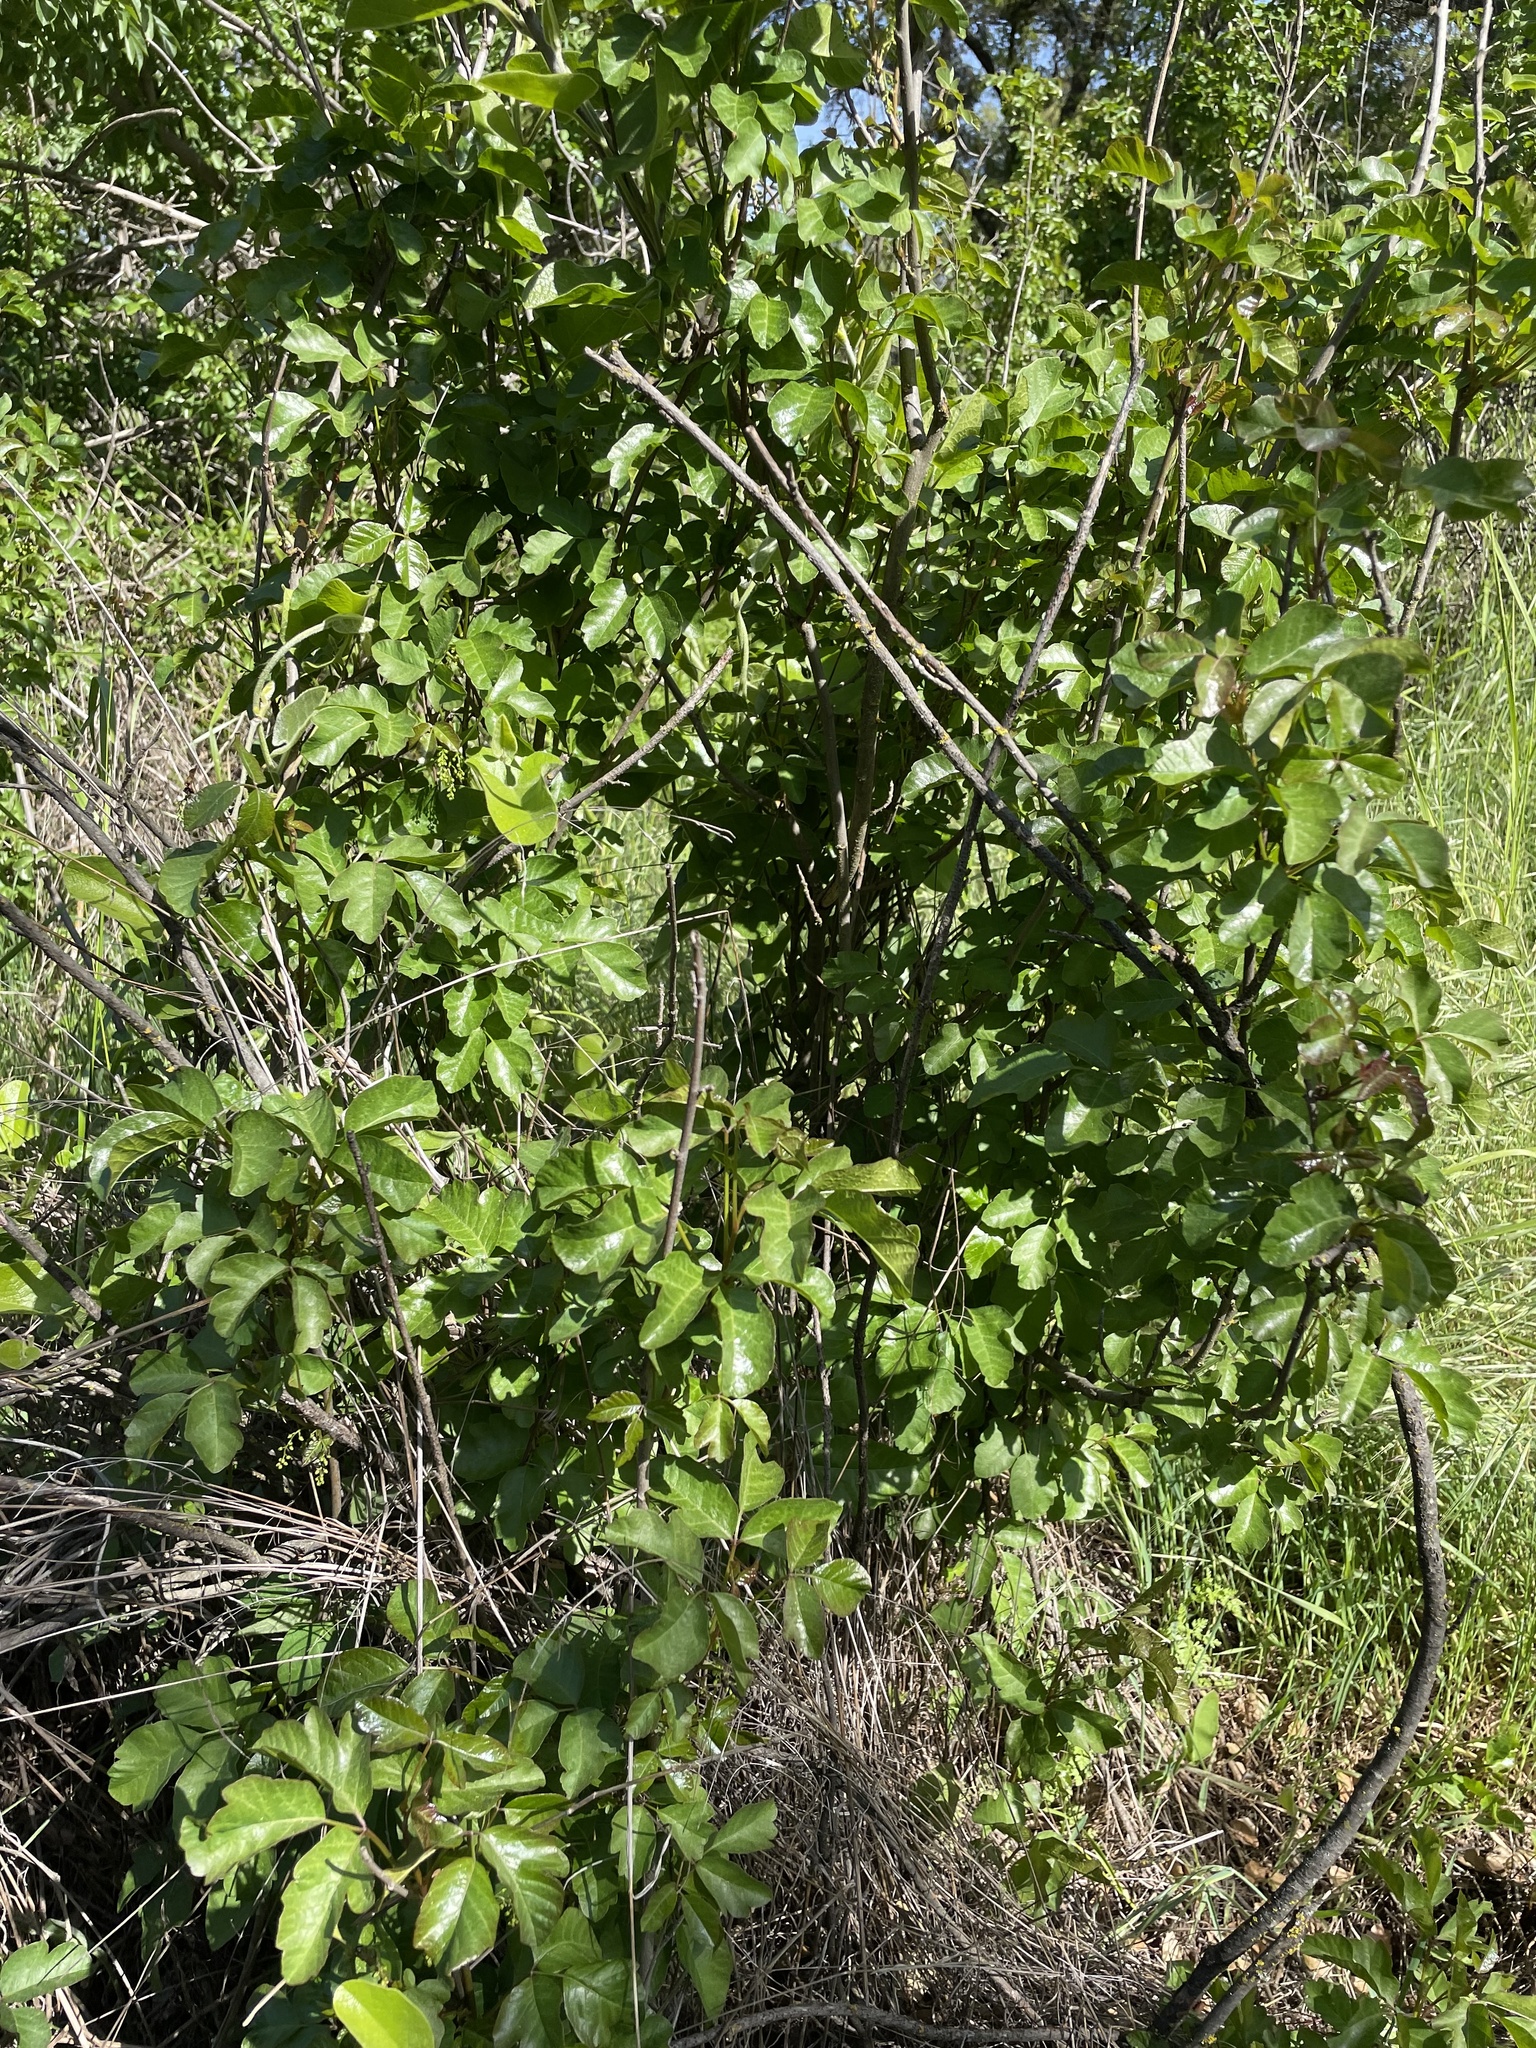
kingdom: Plantae
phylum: Tracheophyta
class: Magnoliopsida
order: Sapindales
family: Anacardiaceae
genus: Toxicodendron
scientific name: Toxicodendron diversilobum
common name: Pacific poison-oak
